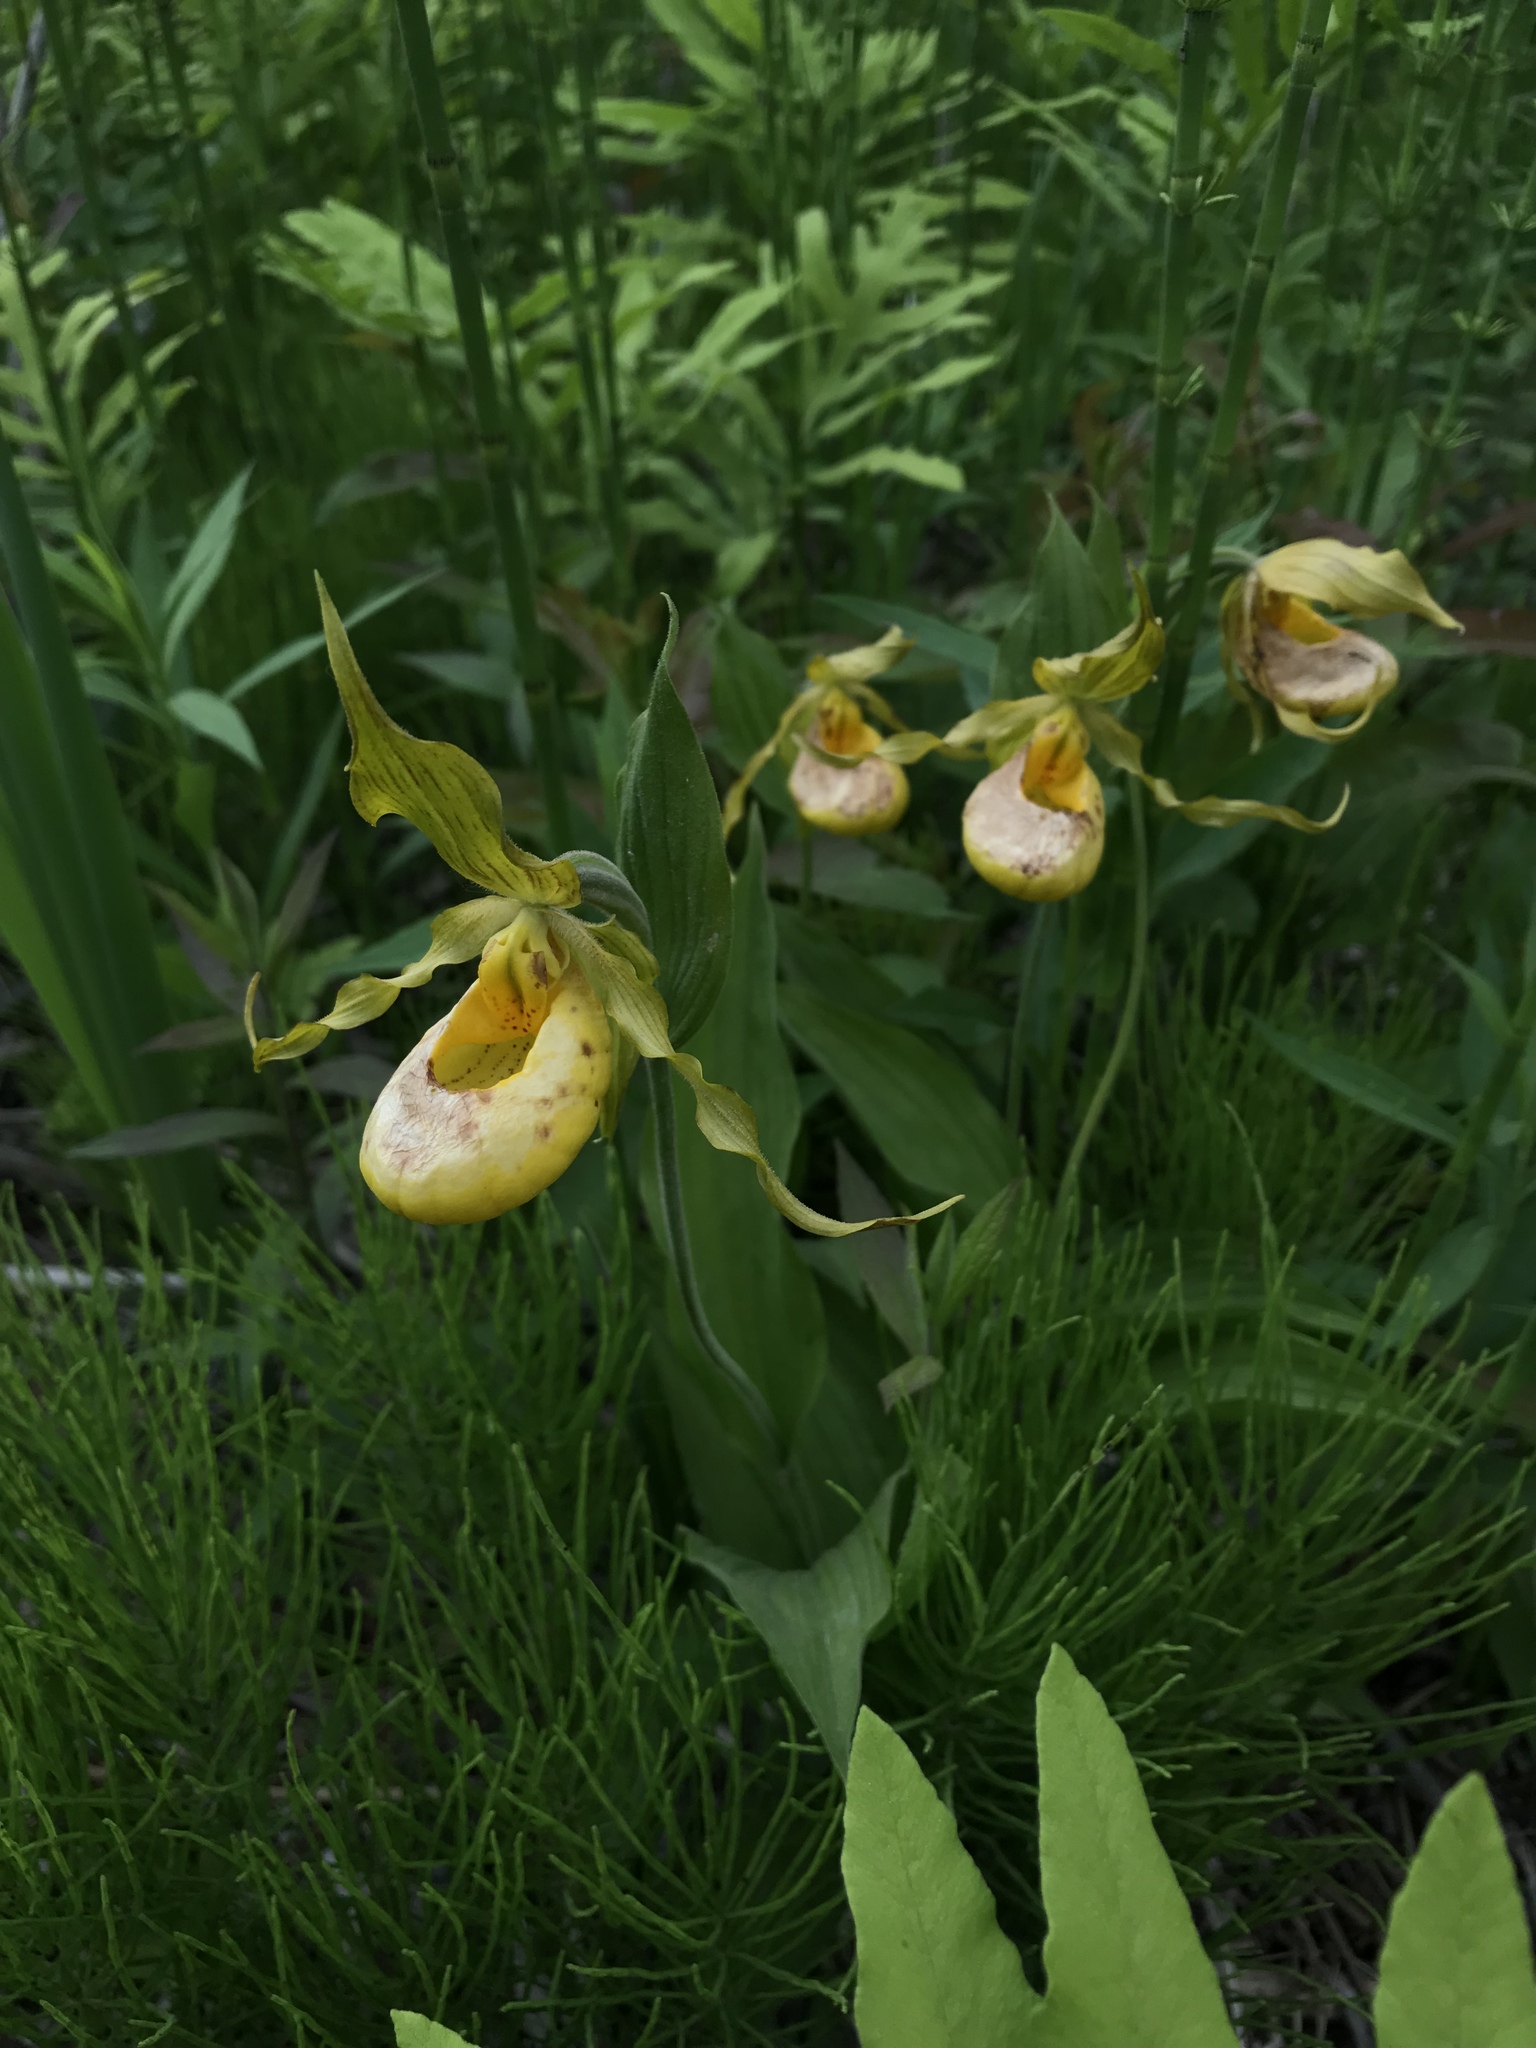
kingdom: Plantae
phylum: Tracheophyta
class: Liliopsida
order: Asparagales
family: Orchidaceae
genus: Cypripedium
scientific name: Cypripedium parviflorum
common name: American yellow lady's-slipper
